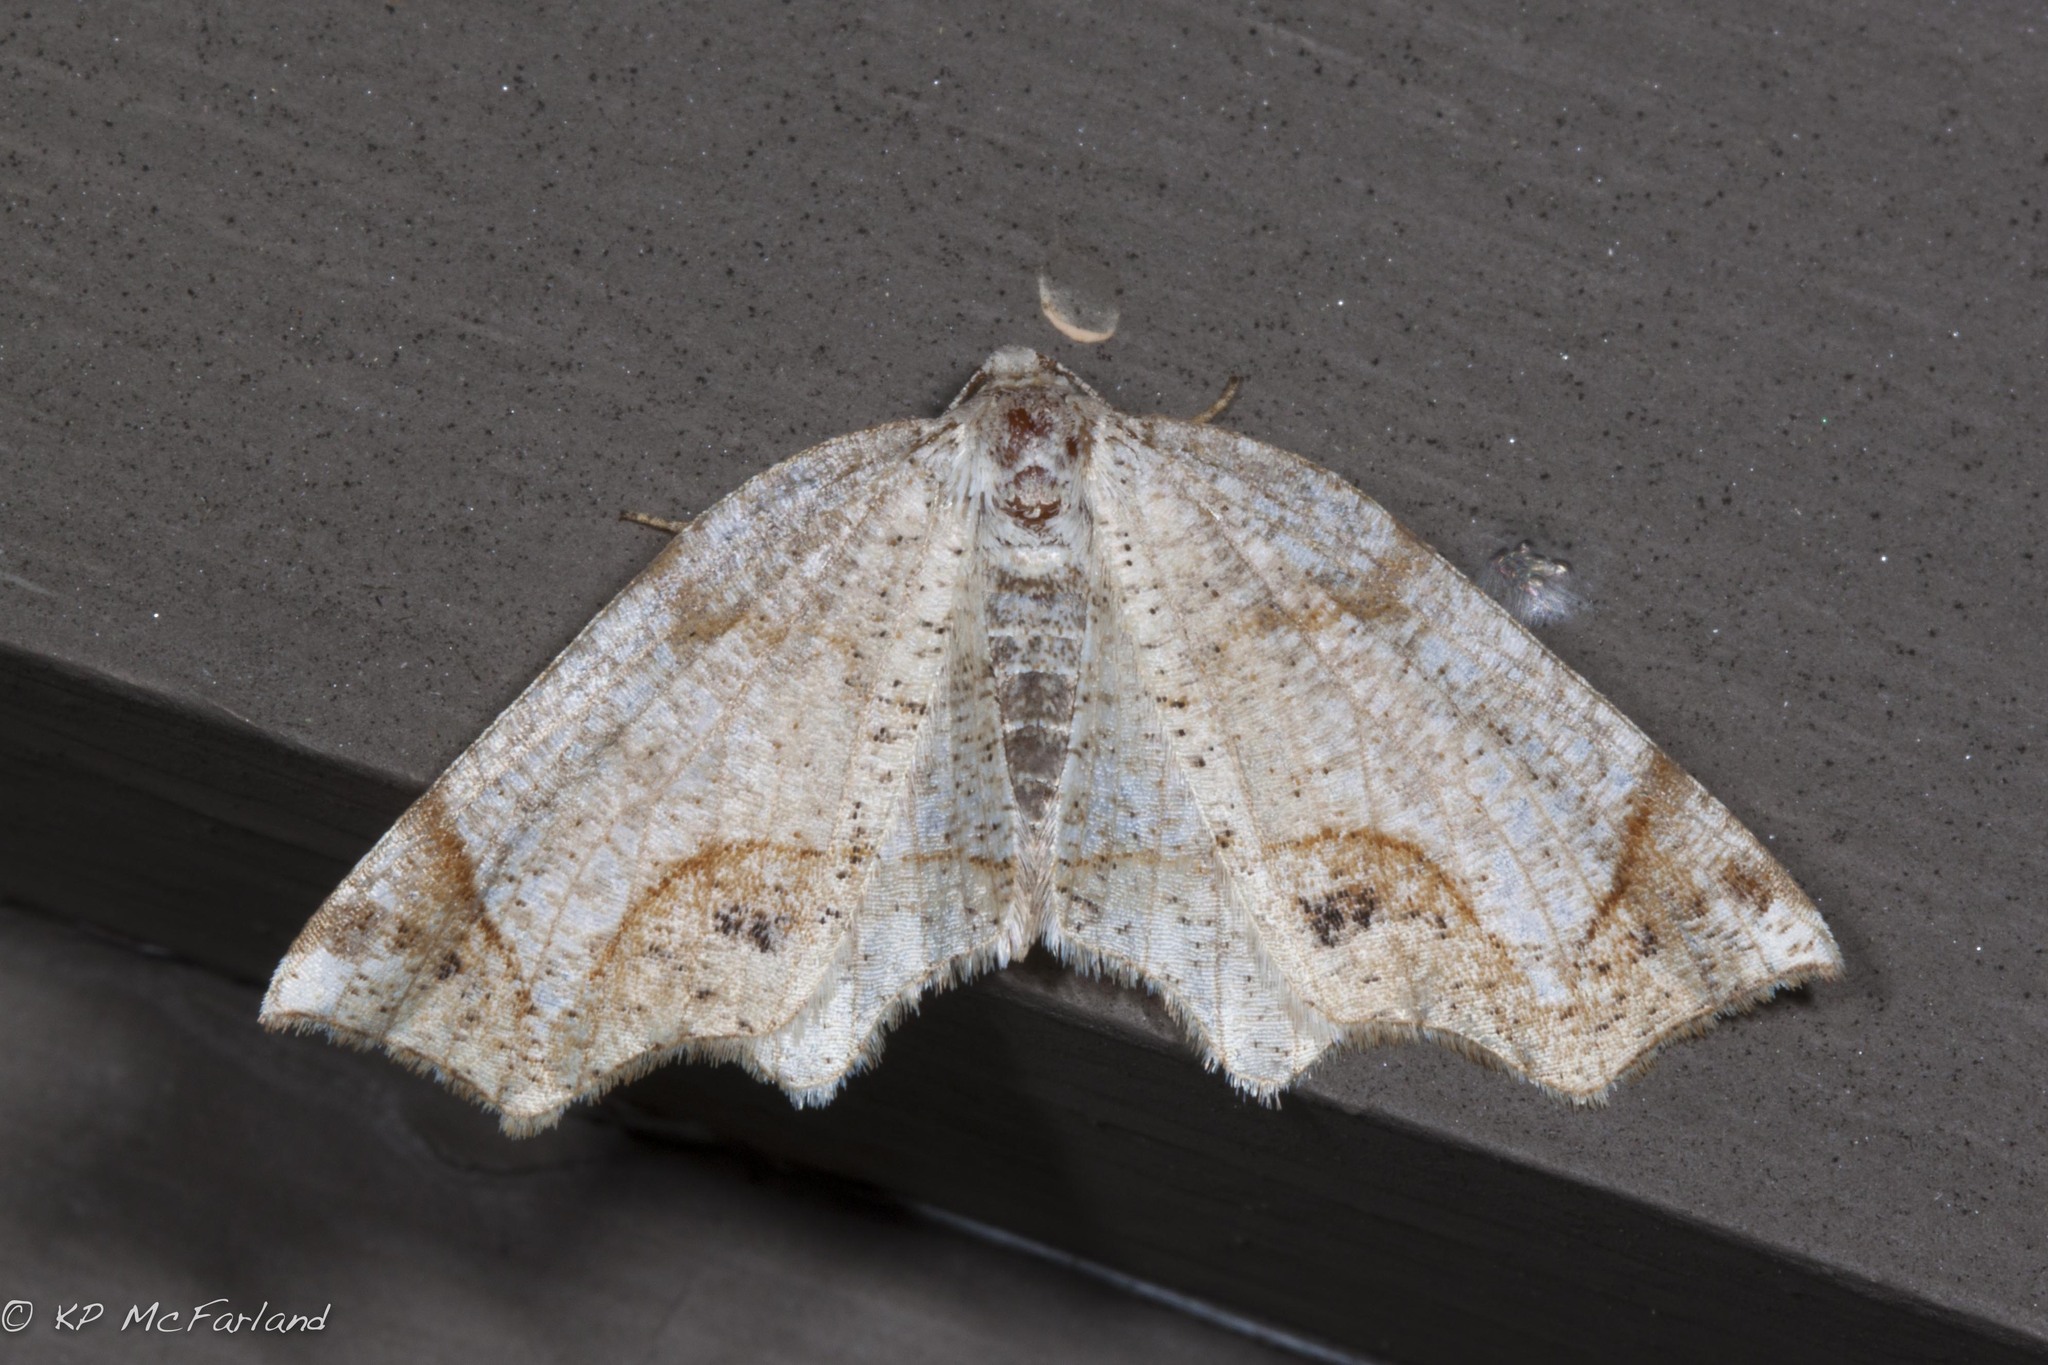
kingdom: Animalia
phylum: Arthropoda
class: Insecta
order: Lepidoptera
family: Geometridae
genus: Probole
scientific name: Probole
